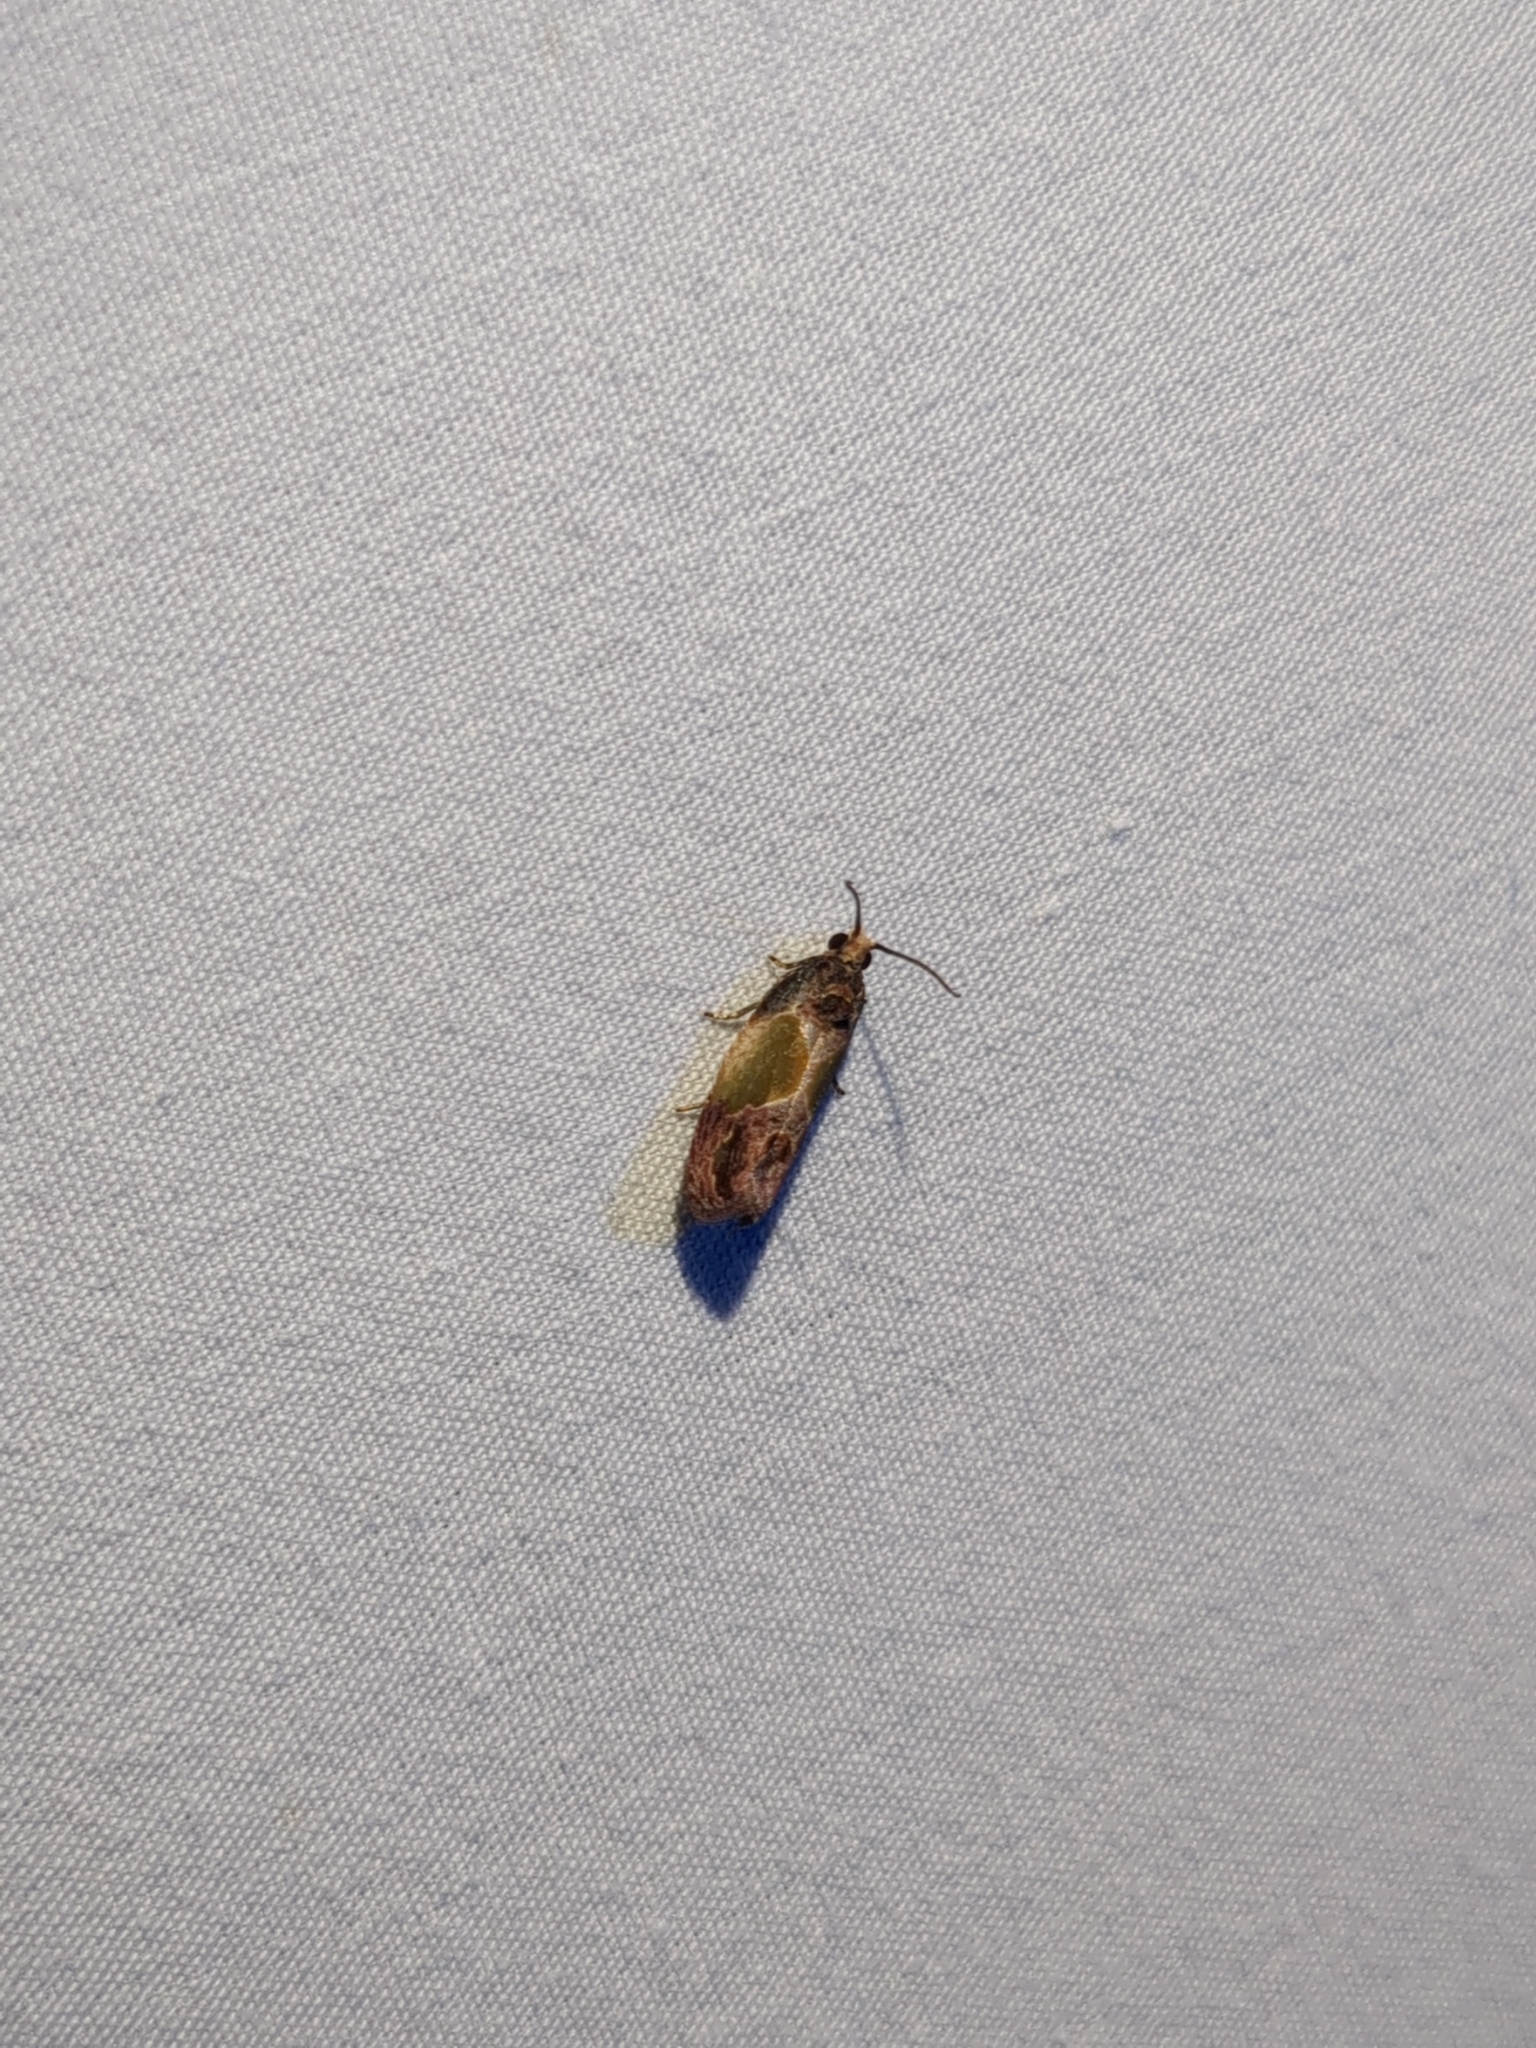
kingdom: Animalia
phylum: Arthropoda
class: Insecta
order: Lepidoptera
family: Tortricidae
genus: Eumarozia
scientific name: Eumarozia malachitana
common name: Sculptured moth
